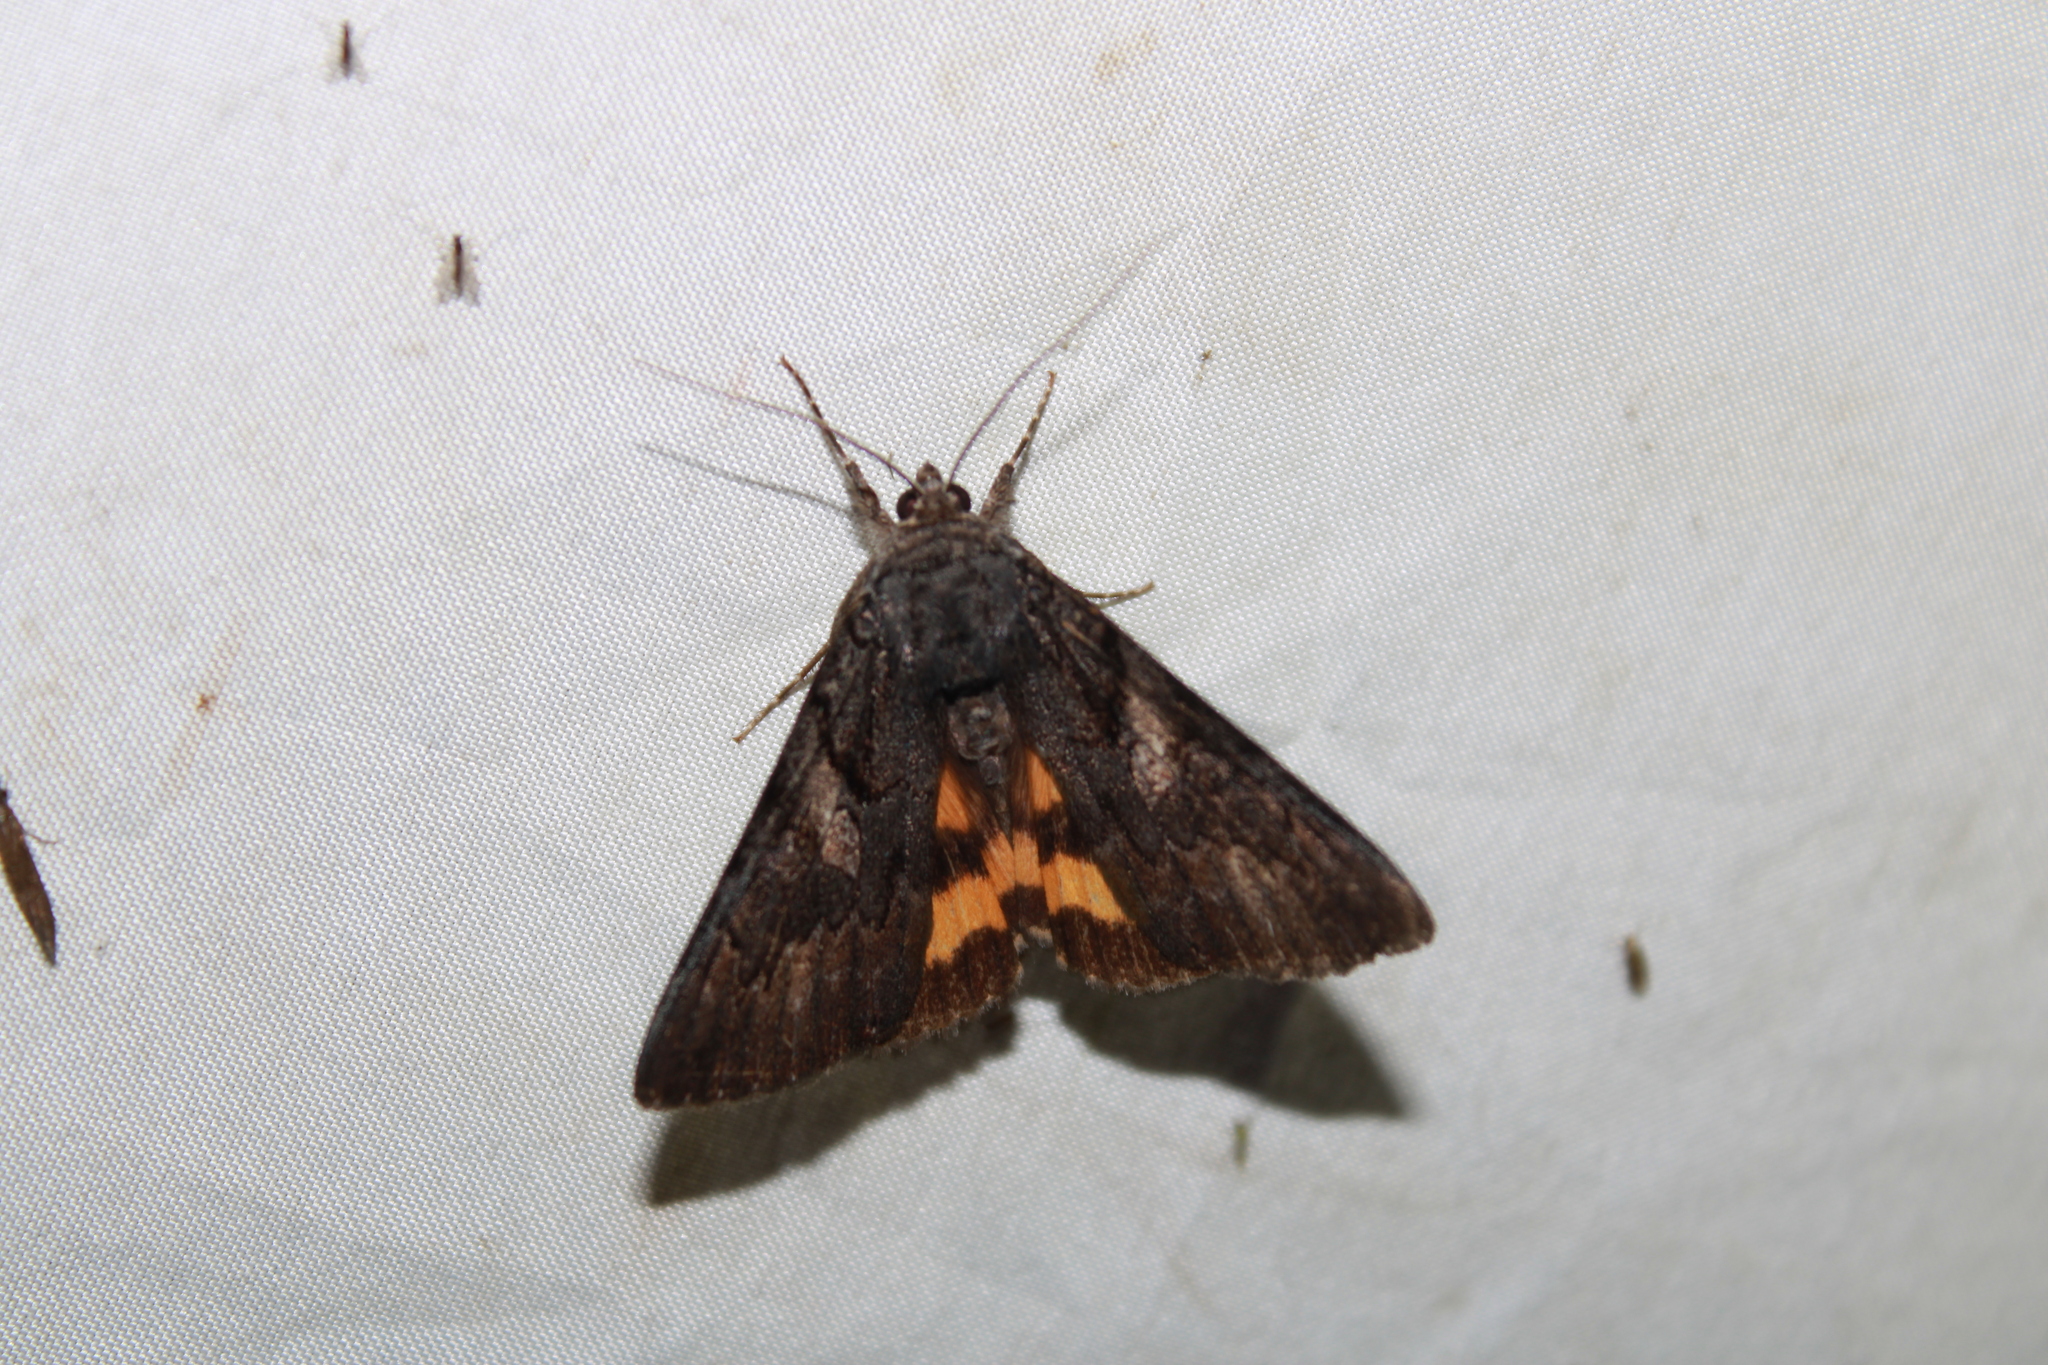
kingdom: Animalia
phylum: Arthropoda
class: Insecta
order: Lepidoptera
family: Erebidae
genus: Catocala
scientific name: Catocala antinympha
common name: Sweetfern underwing
